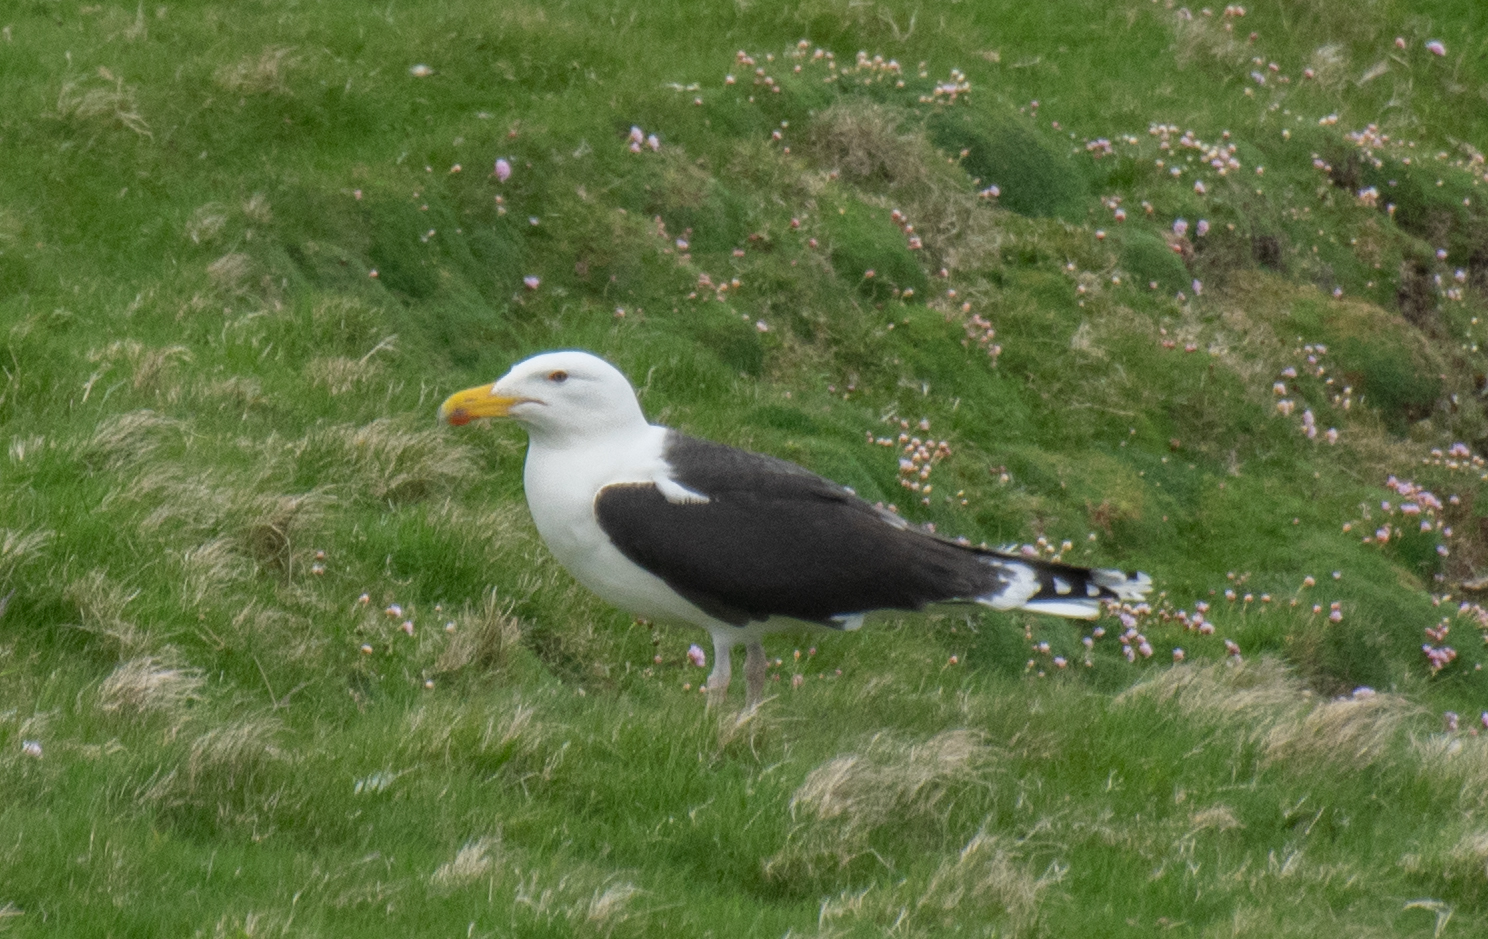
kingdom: Animalia
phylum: Chordata
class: Aves
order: Charadriiformes
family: Laridae
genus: Larus
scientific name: Larus marinus
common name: Great black-backed gull
